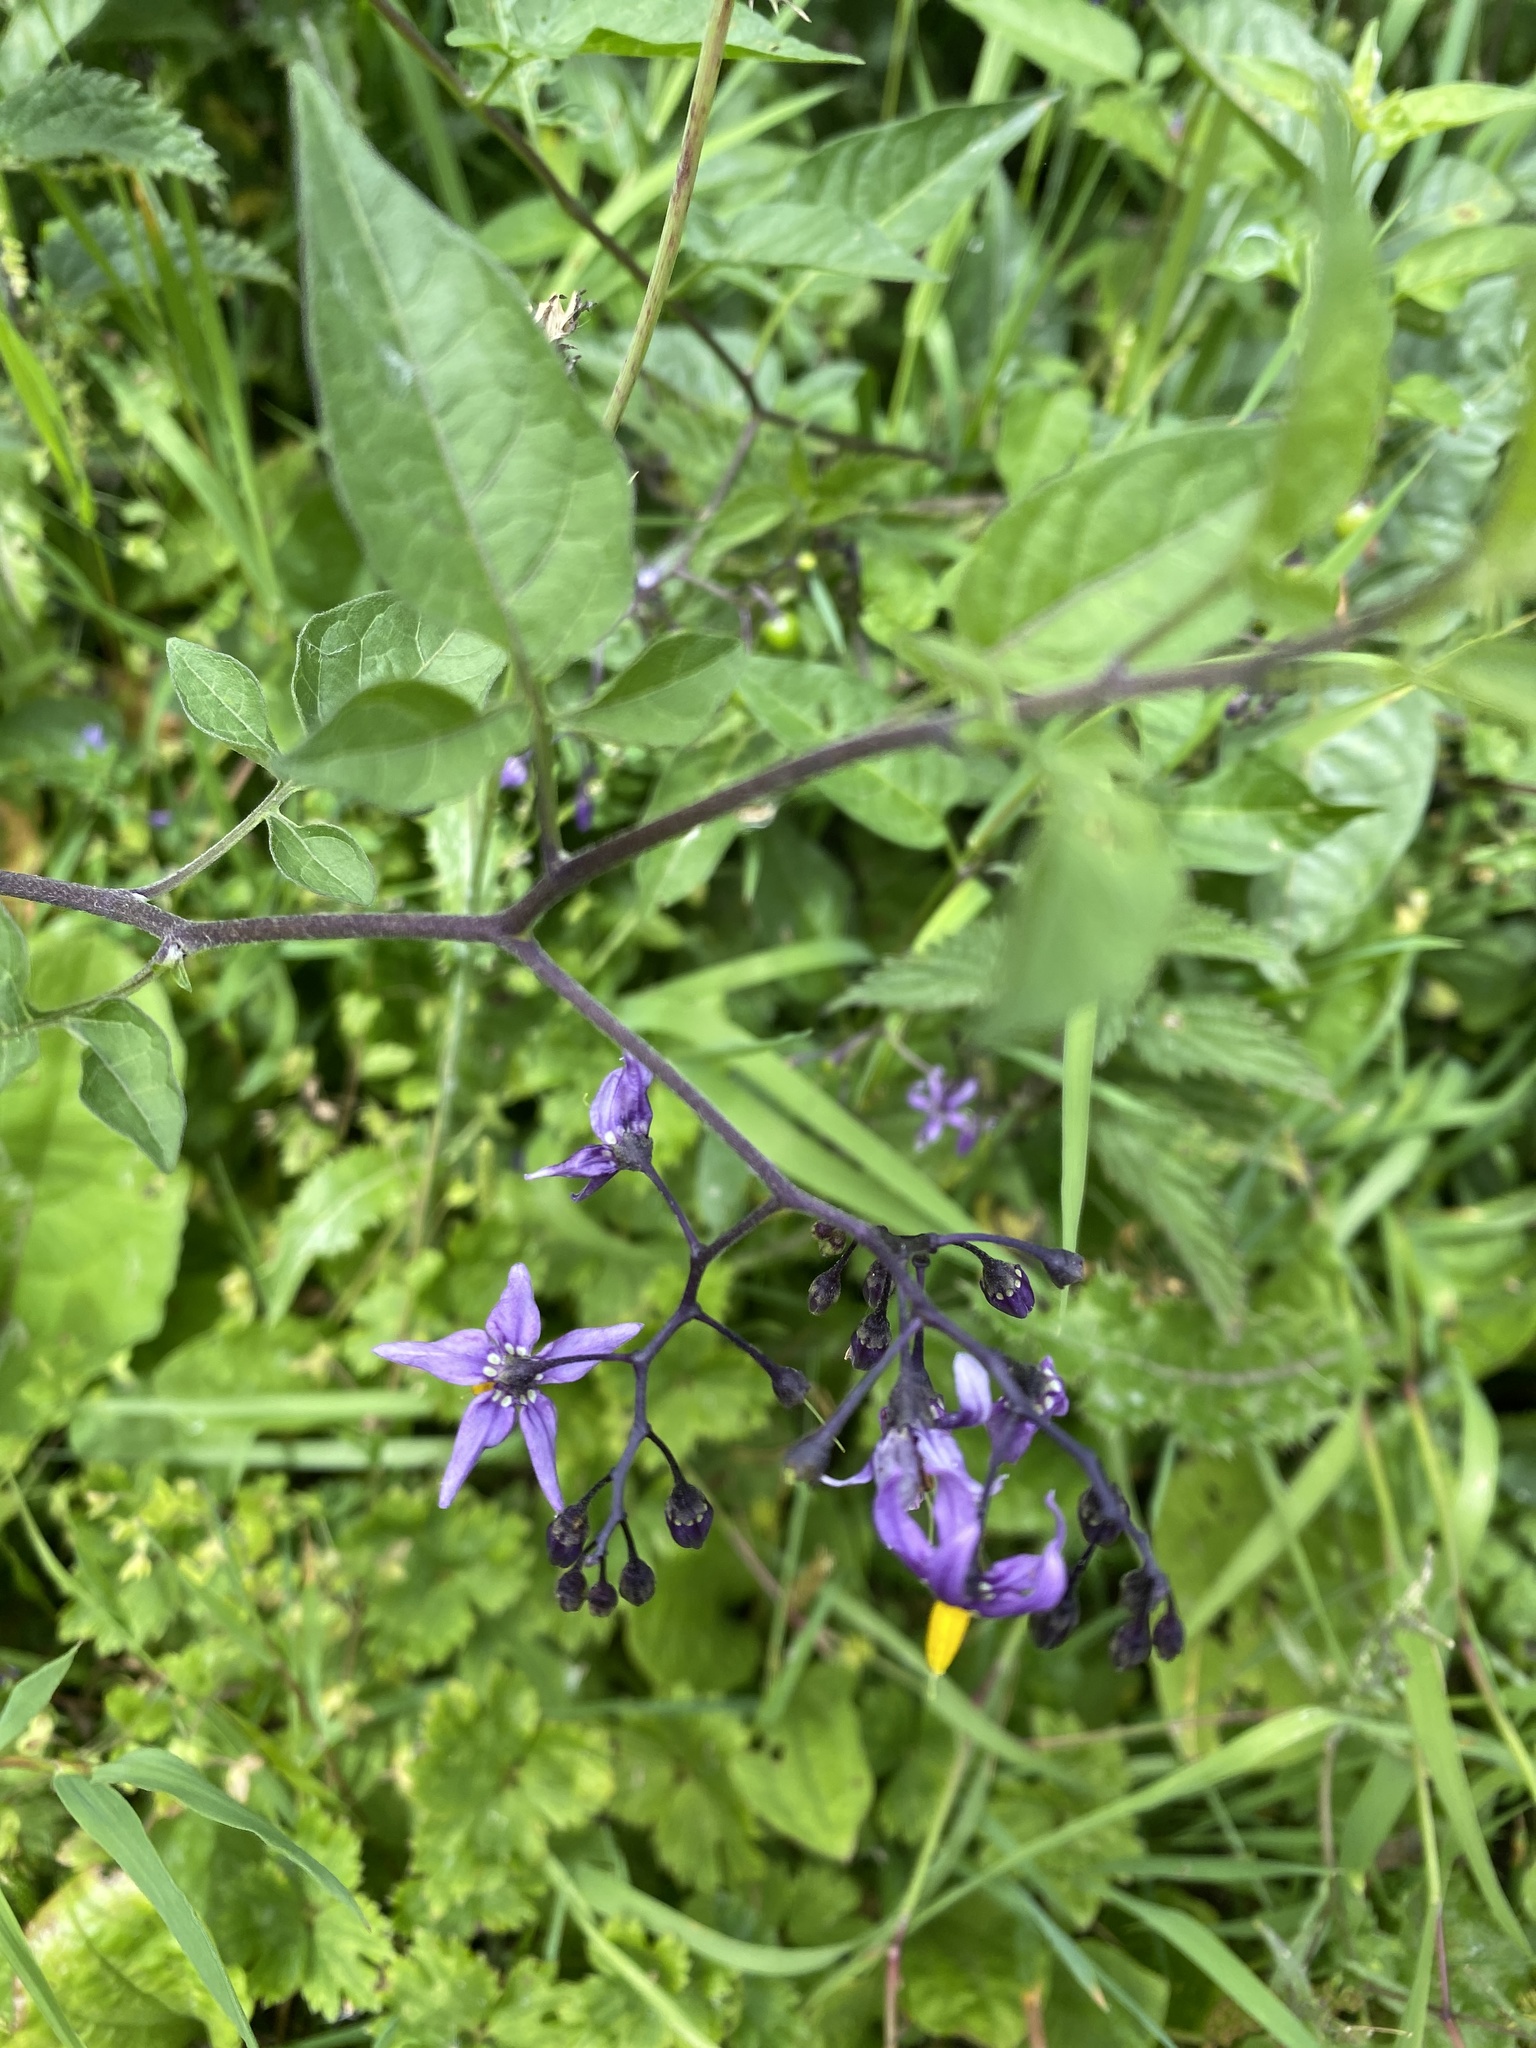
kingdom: Plantae
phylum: Tracheophyta
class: Magnoliopsida
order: Solanales
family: Solanaceae
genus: Solanum
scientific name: Solanum dulcamara
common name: Climbing nightshade
